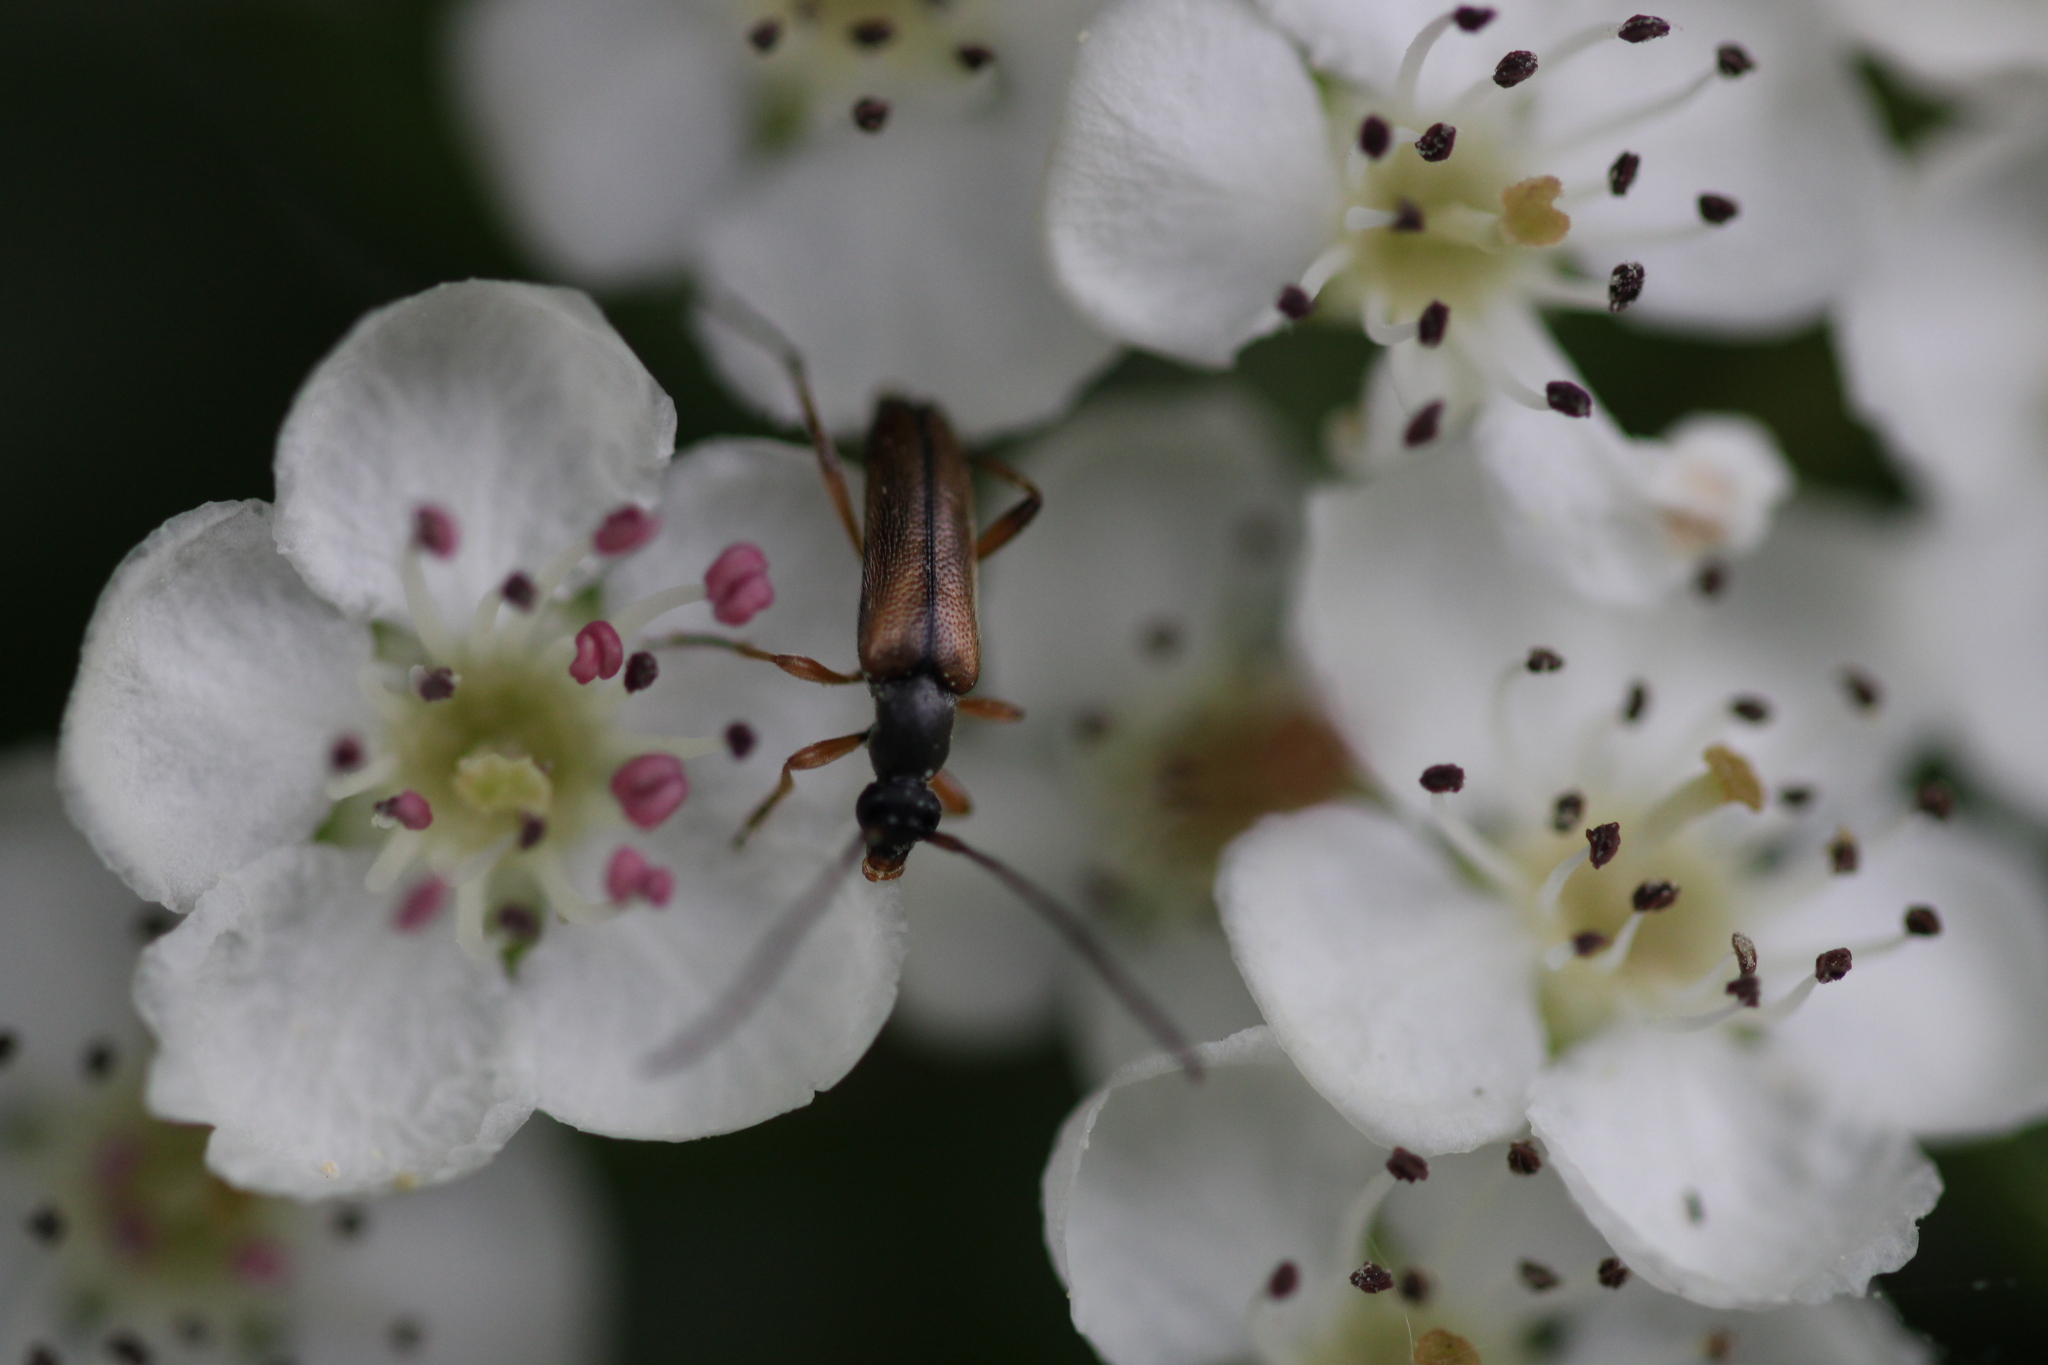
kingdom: Animalia
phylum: Arthropoda
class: Insecta
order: Coleoptera
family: Cerambycidae
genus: Alosterna
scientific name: Alosterna tabacicolor
